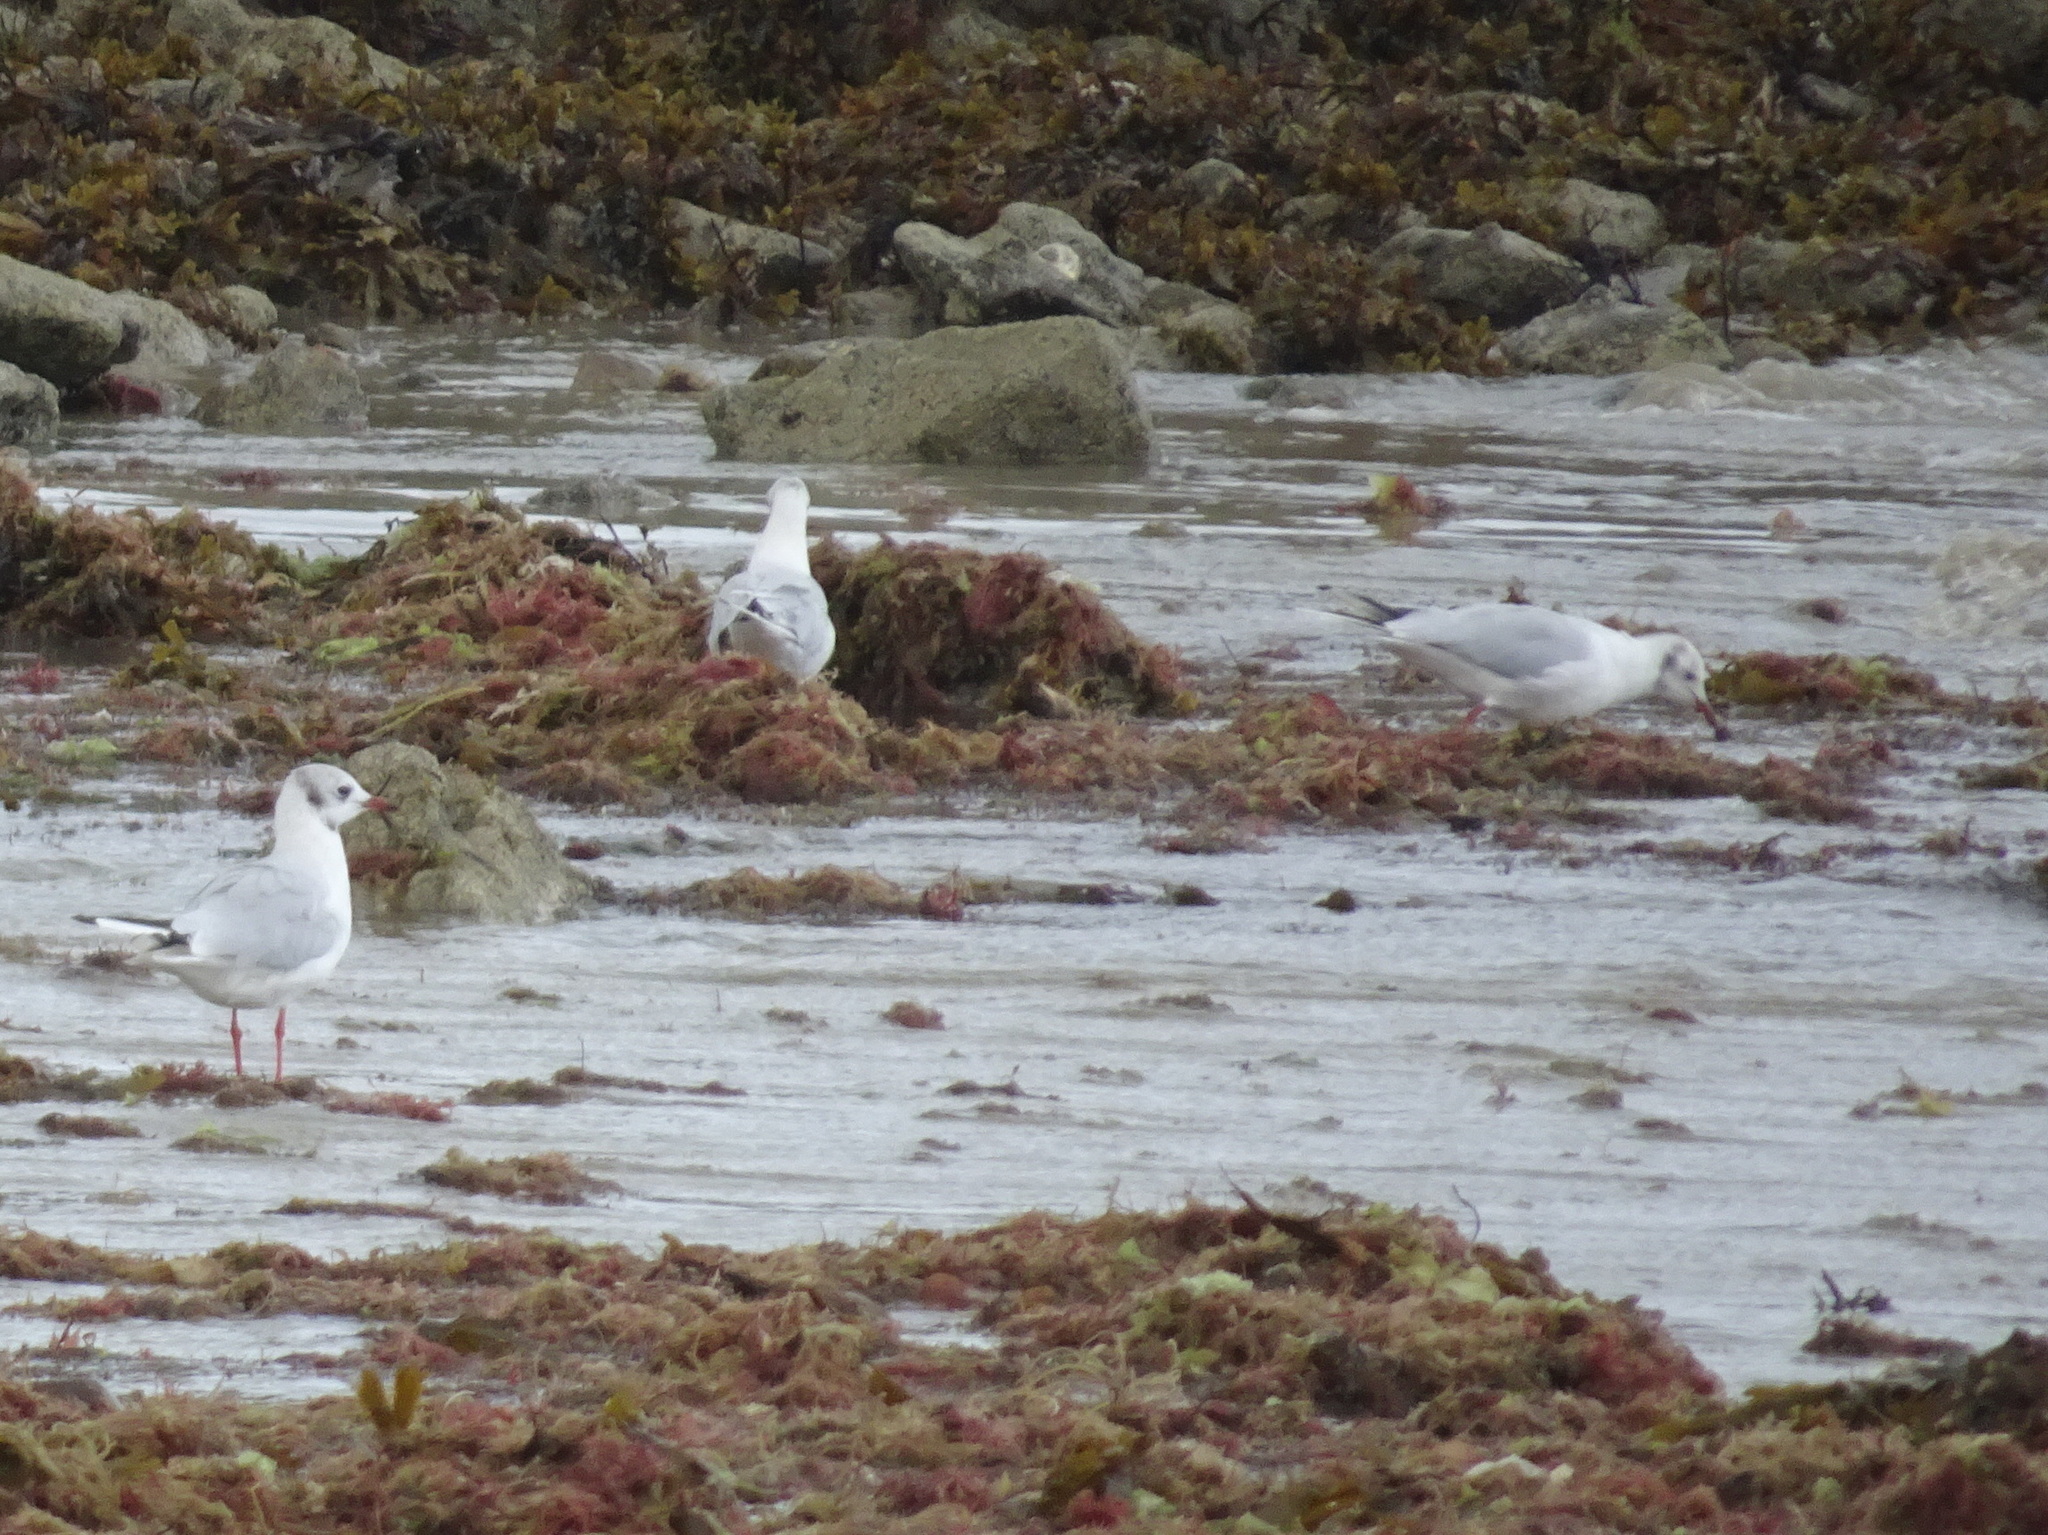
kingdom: Animalia
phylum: Chordata
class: Aves
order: Charadriiformes
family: Laridae
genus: Chroicocephalus
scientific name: Chroicocephalus ridibundus
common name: Black-headed gull
